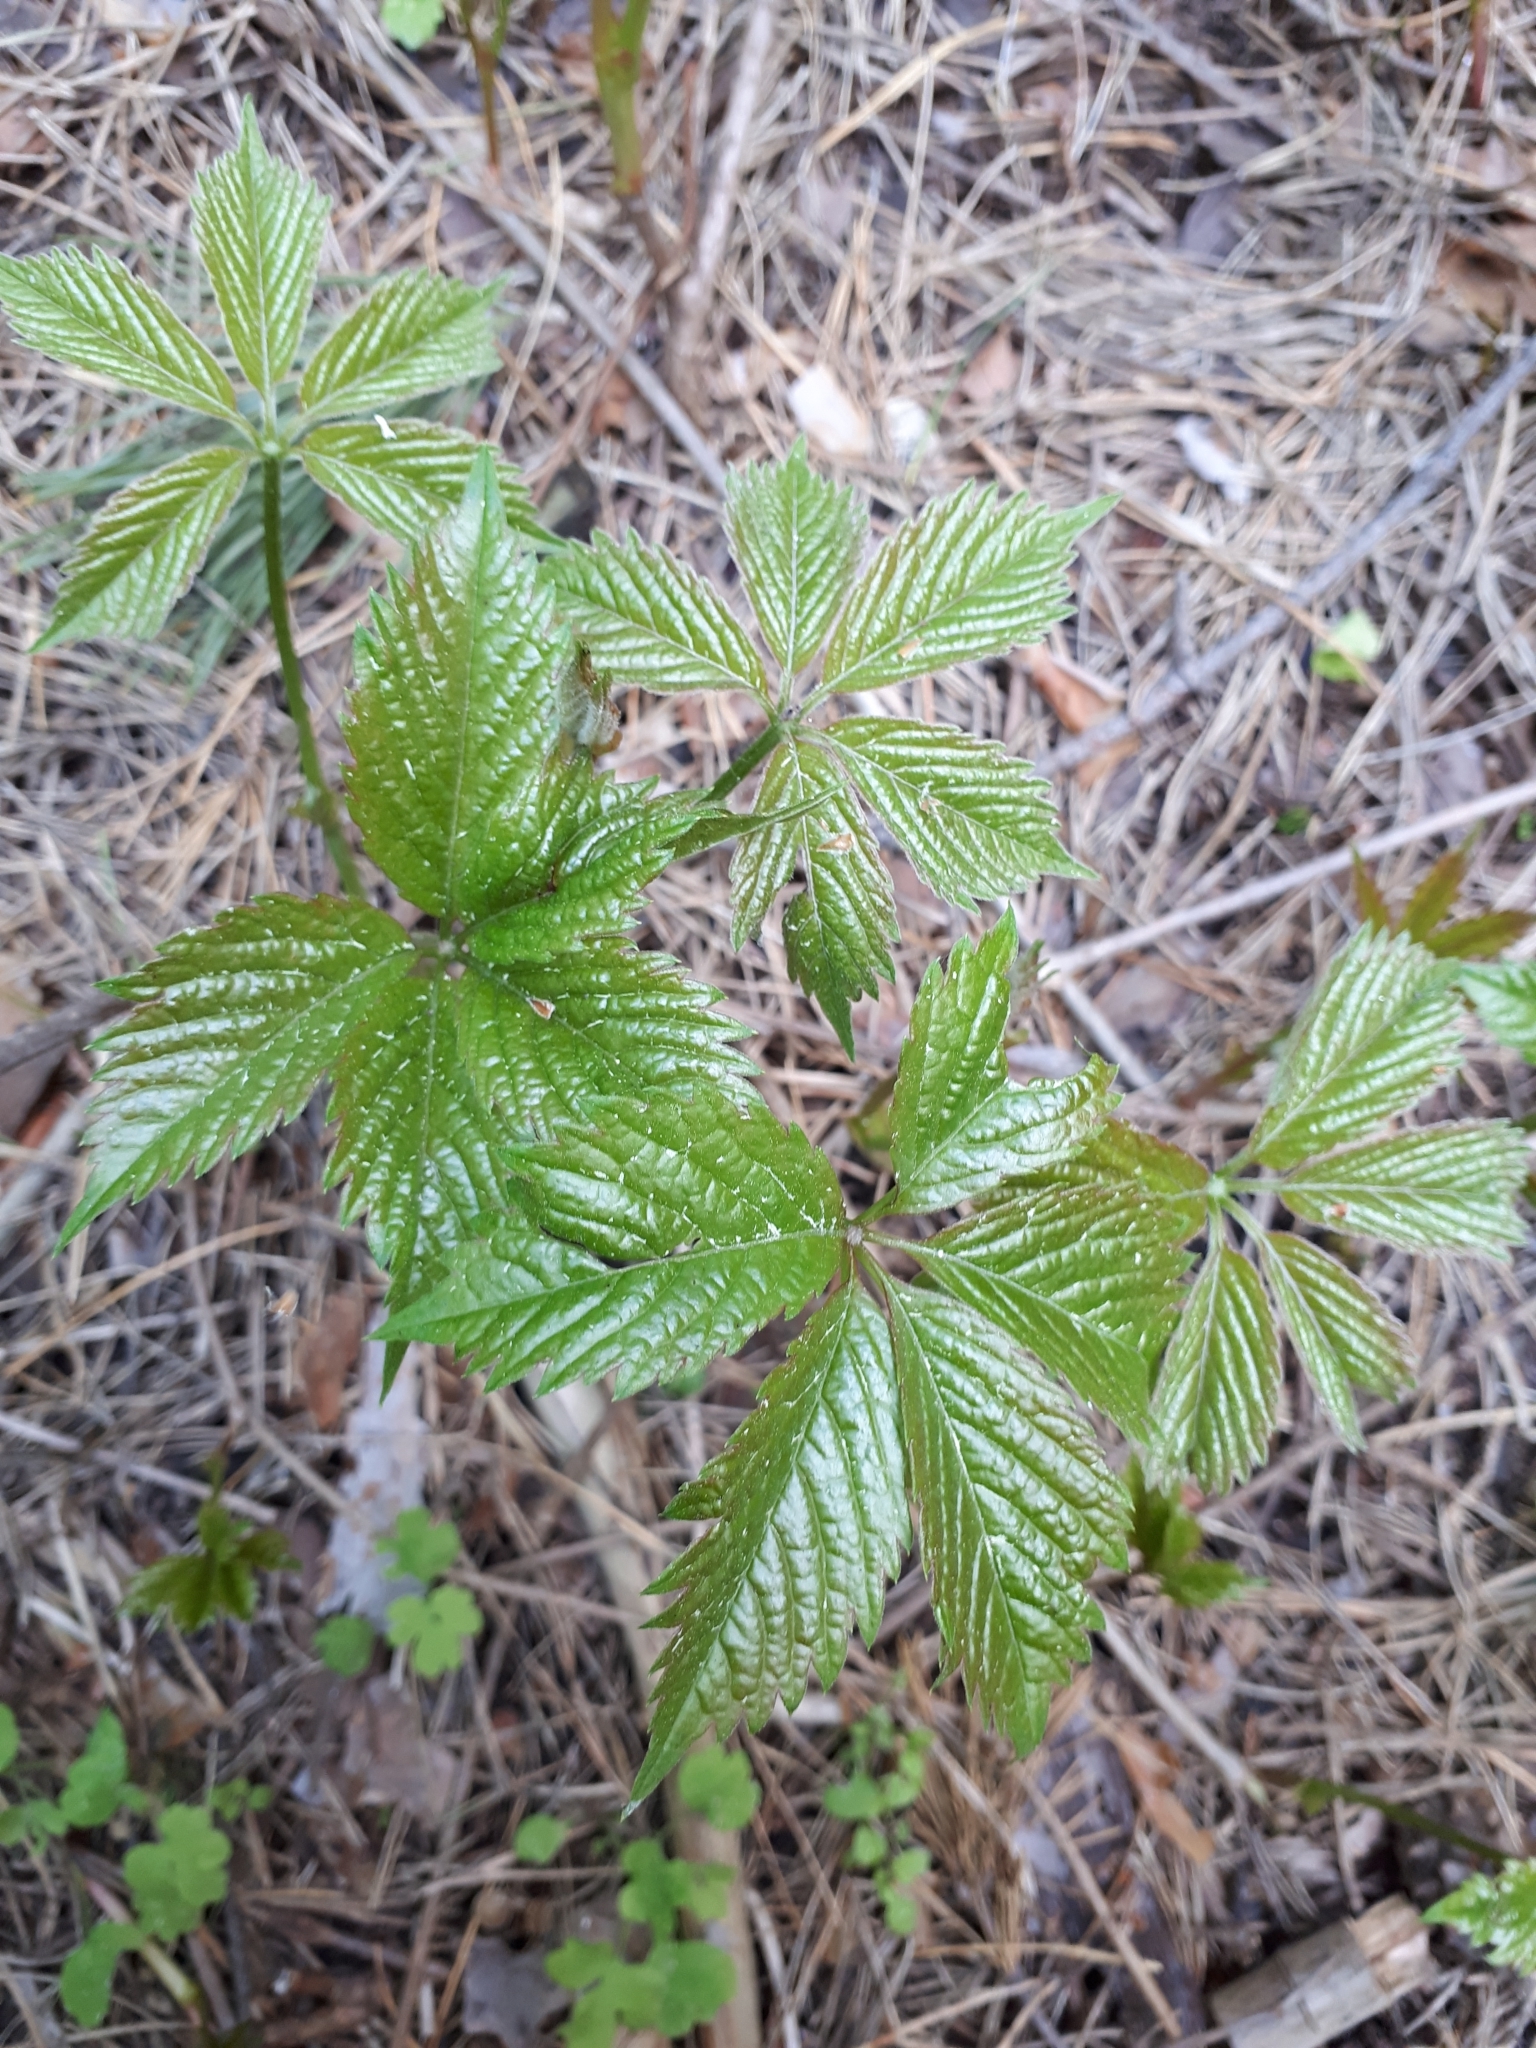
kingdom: Plantae
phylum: Tracheophyta
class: Magnoliopsida
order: Vitales
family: Vitaceae
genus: Parthenocissus
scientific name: Parthenocissus inserta
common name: False virginia-creeper
